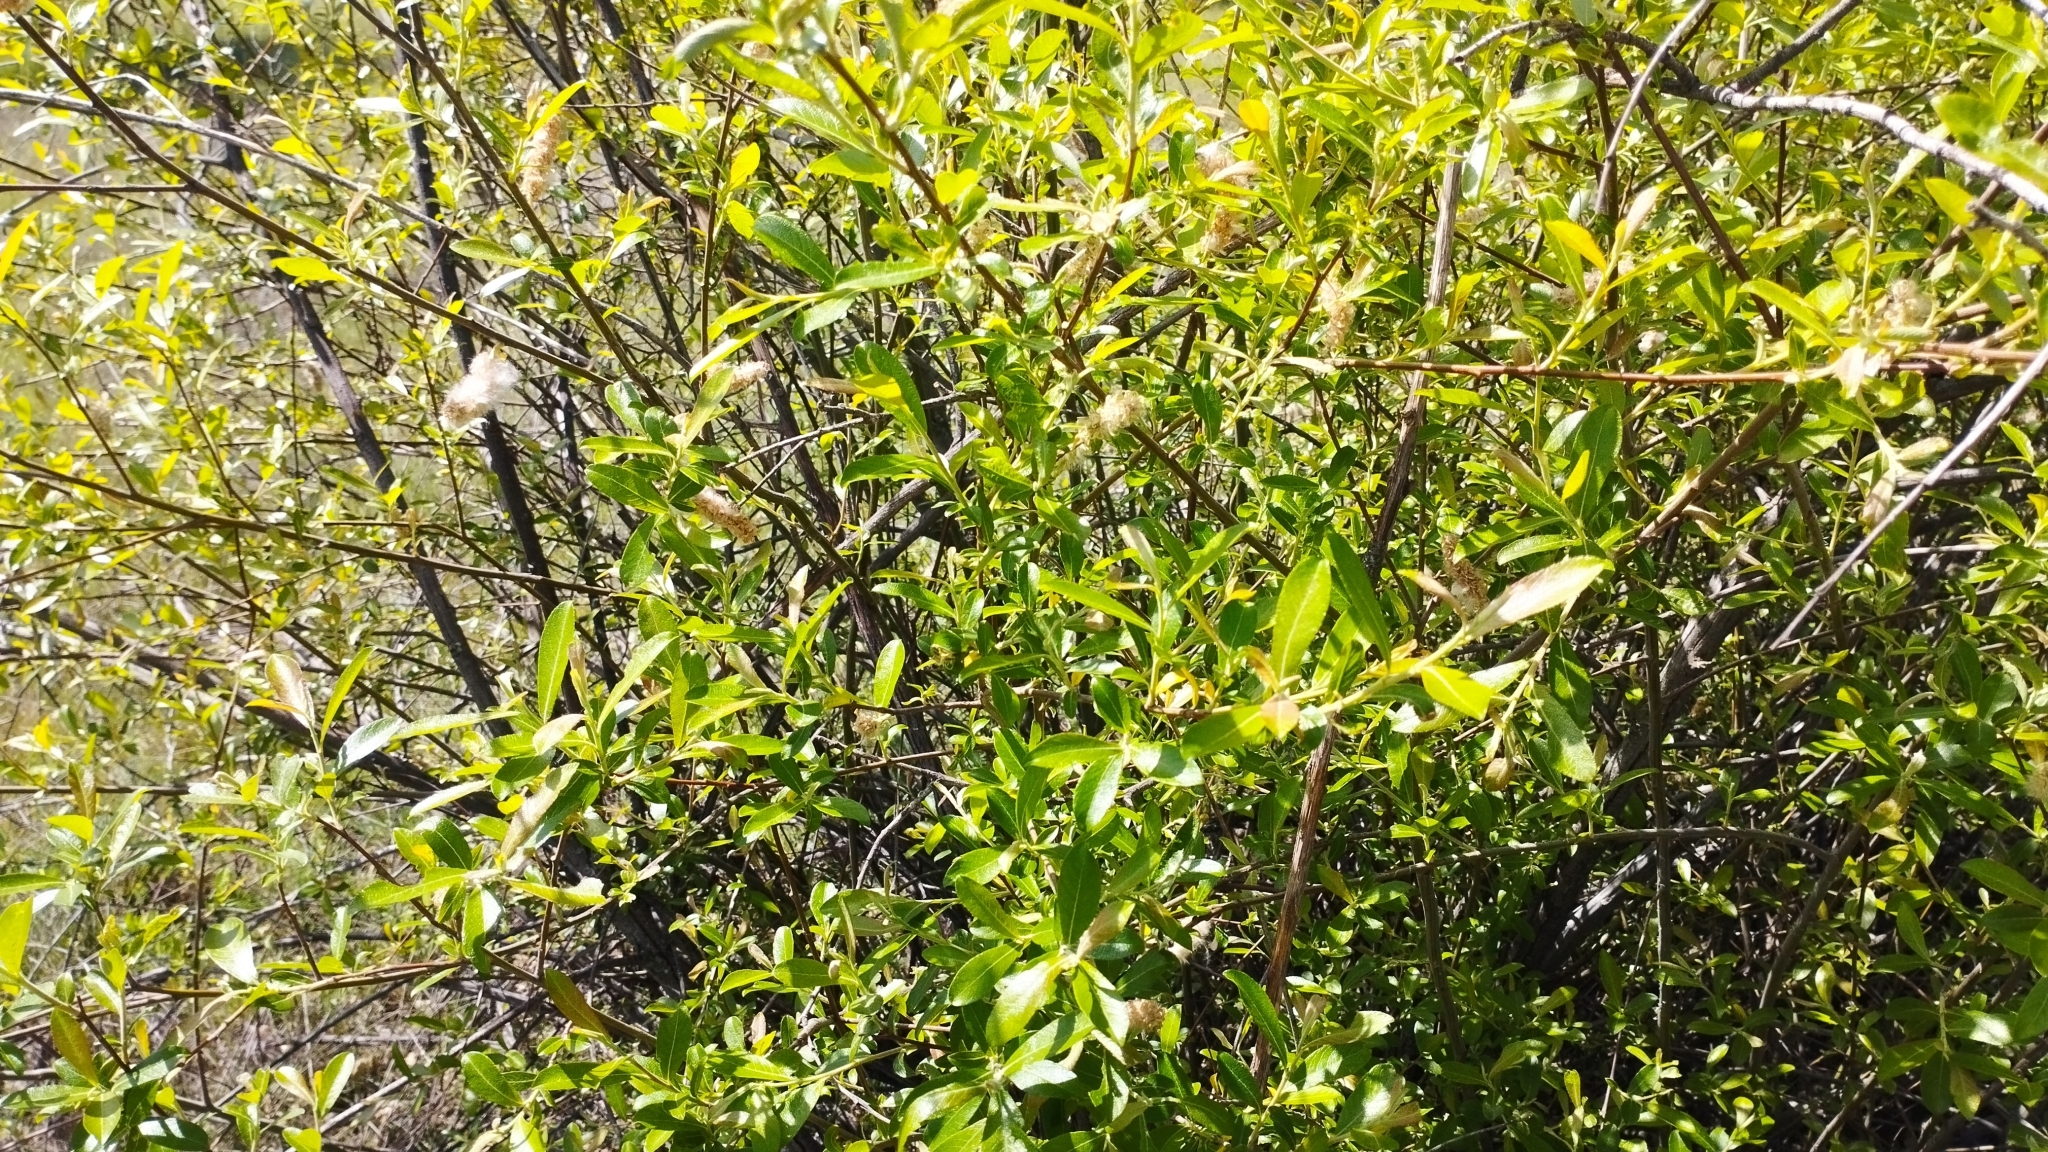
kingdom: Plantae
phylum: Tracheophyta
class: Magnoliopsida
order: Malpighiales
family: Salicaceae
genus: Salix
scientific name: Salix salviifolia
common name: Salvia-leaf willow
